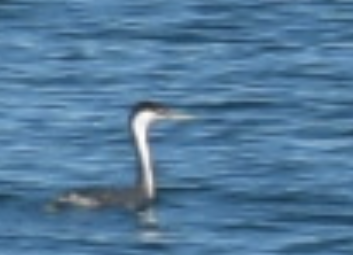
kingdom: Animalia
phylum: Chordata
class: Aves
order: Podicipediformes
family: Podicipedidae
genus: Aechmophorus
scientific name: Aechmophorus occidentalis
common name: Western grebe
